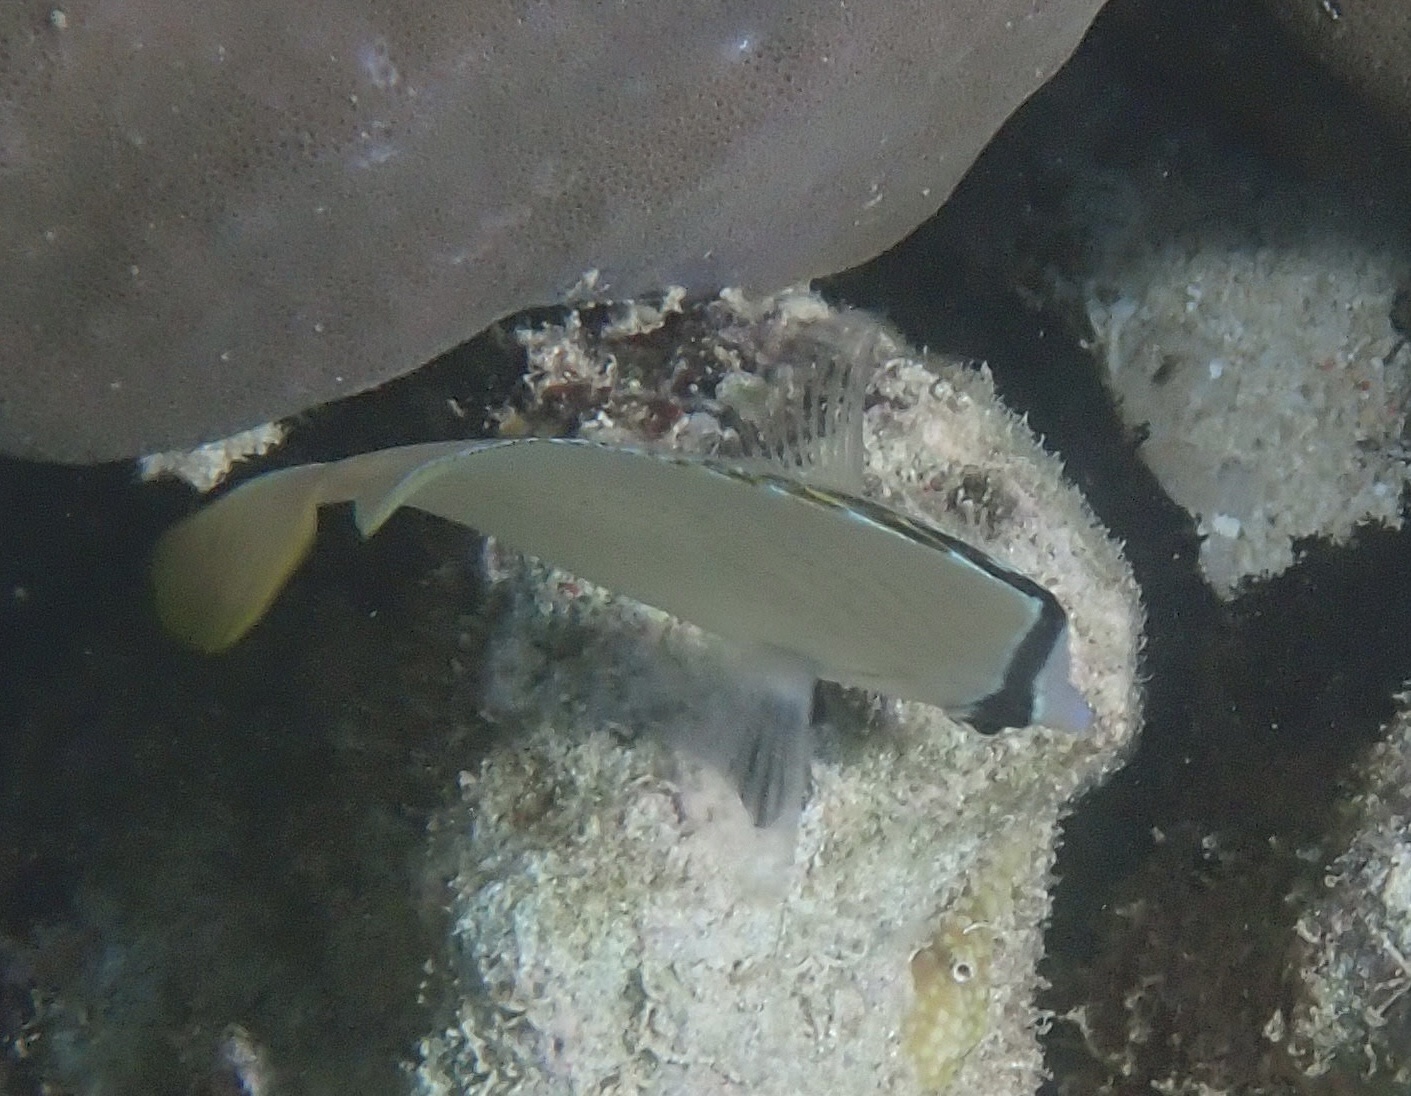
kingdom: Animalia
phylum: Chordata
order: Perciformes
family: Chaetodontidae
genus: Chaetodon
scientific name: Chaetodon citrinellus
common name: Speckled butterflyfish
